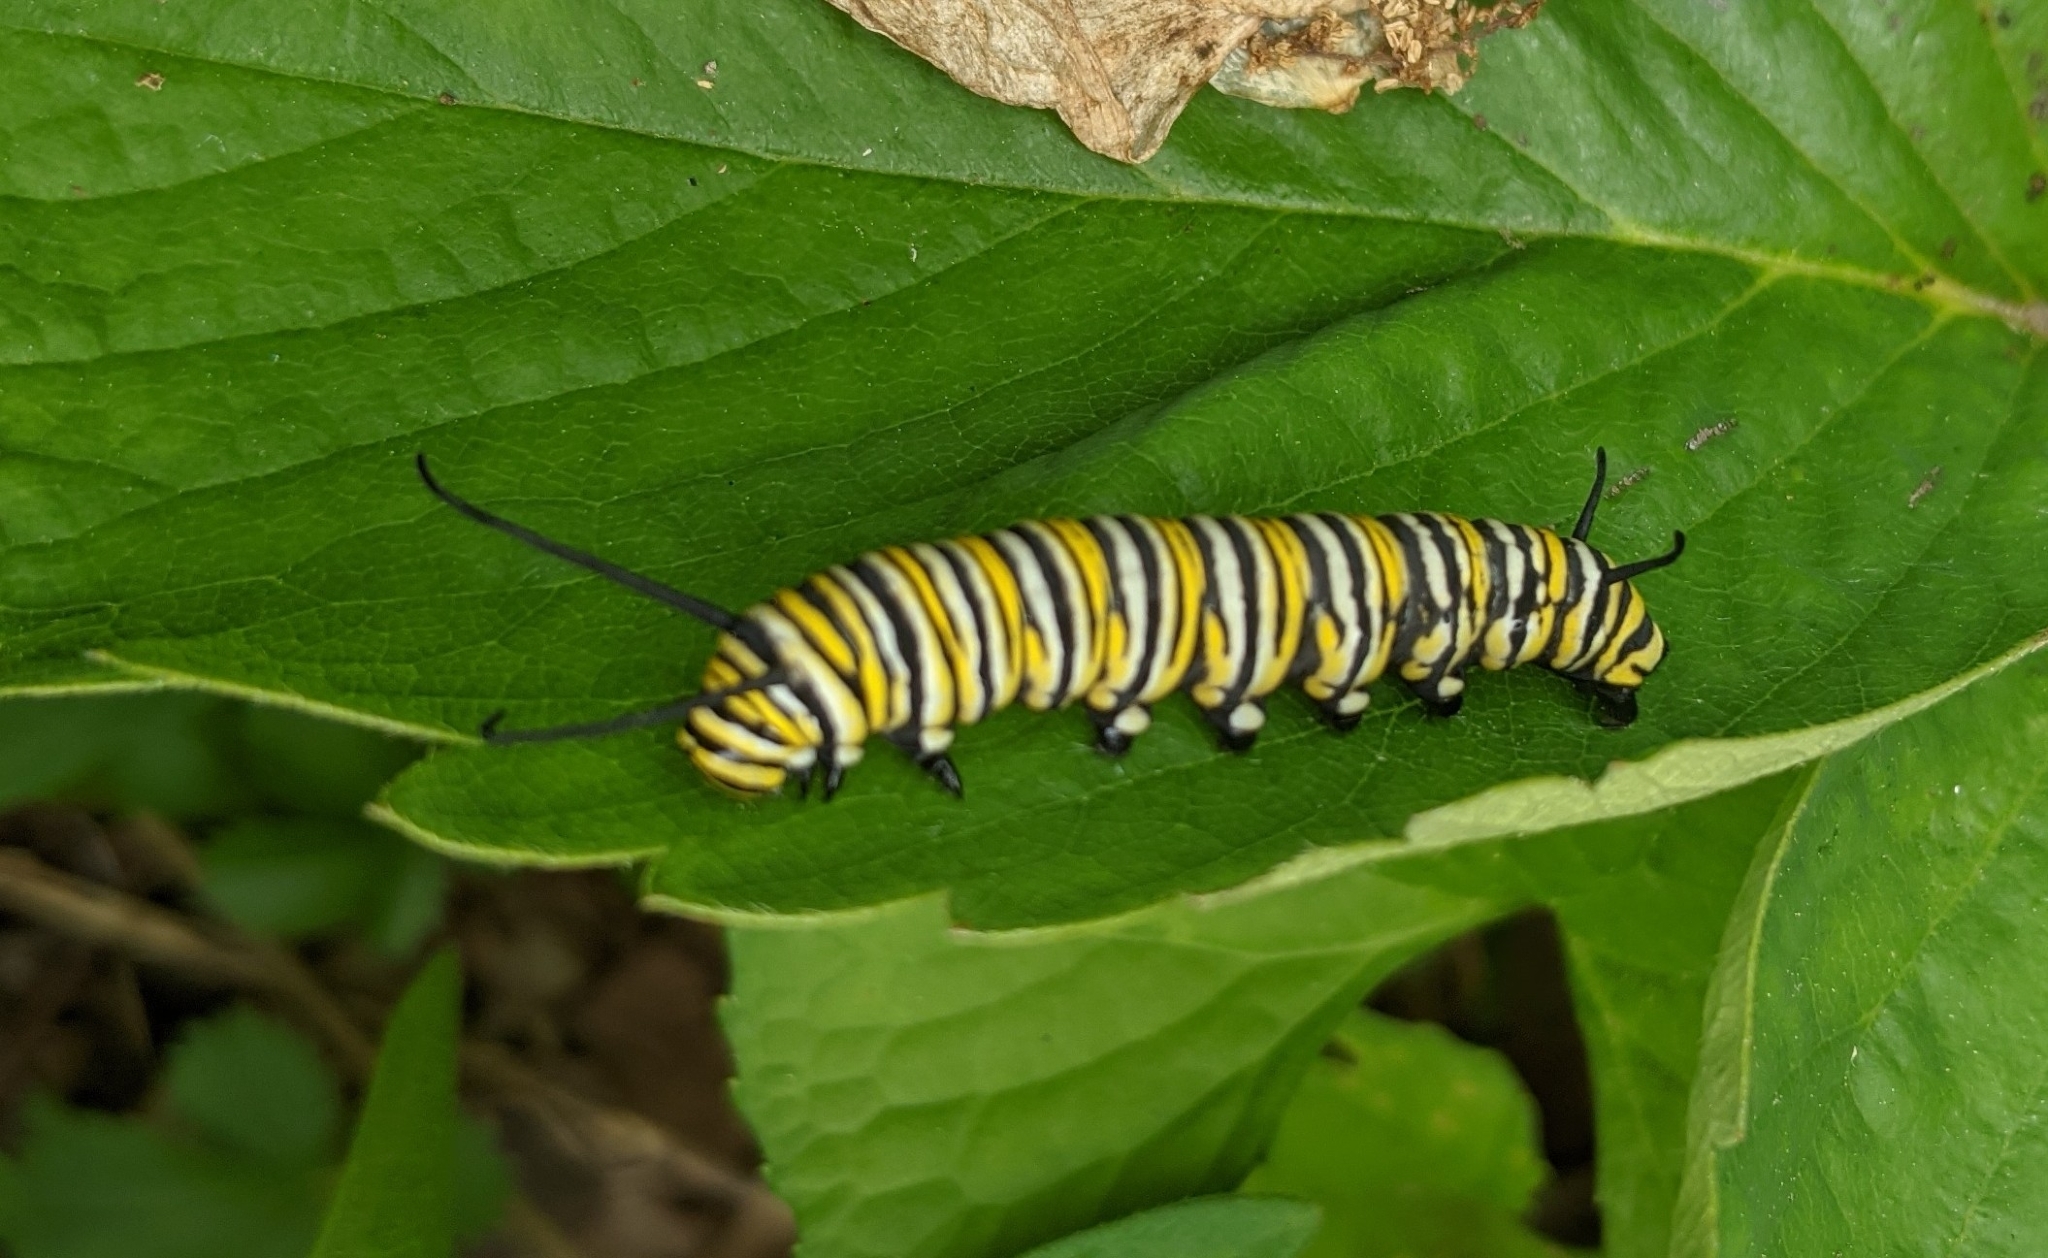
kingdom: Animalia
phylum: Arthropoda
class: Insecta
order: Lepidoptera
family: Nymphalidae
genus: Danaus
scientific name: Danaus plexippus
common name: Monarch
